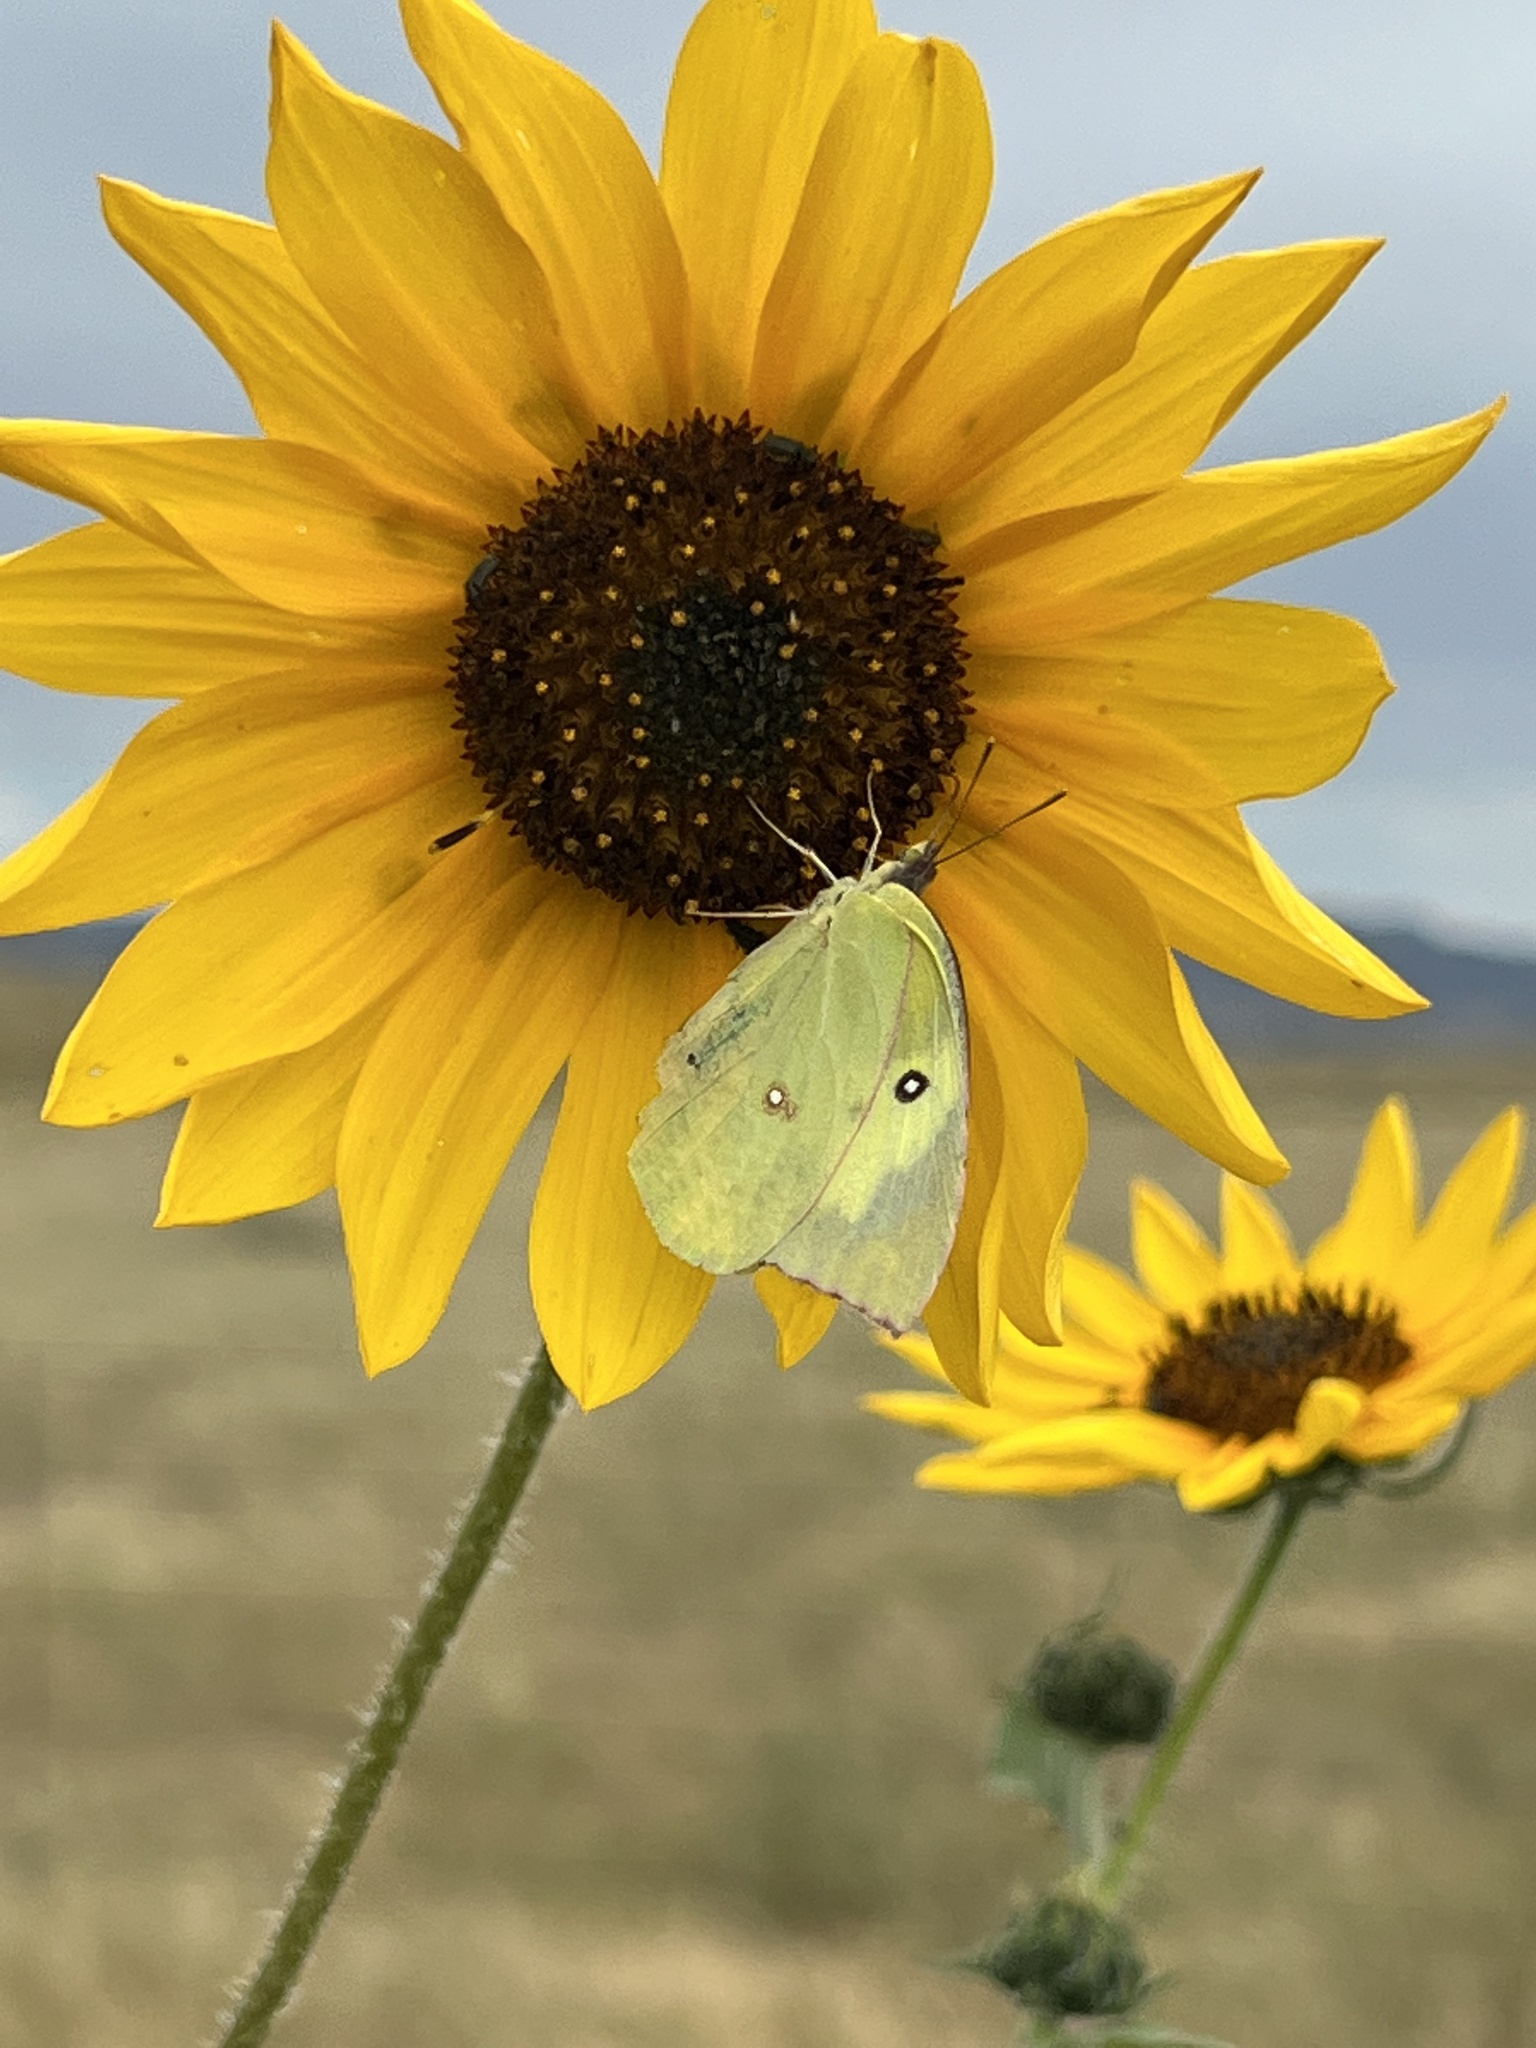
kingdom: Animalia
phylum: Arthropoda
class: Insecta
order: Lepidoptera
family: Pieridae
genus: Zerene
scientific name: Zerene cesonia
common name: Southern dogface
